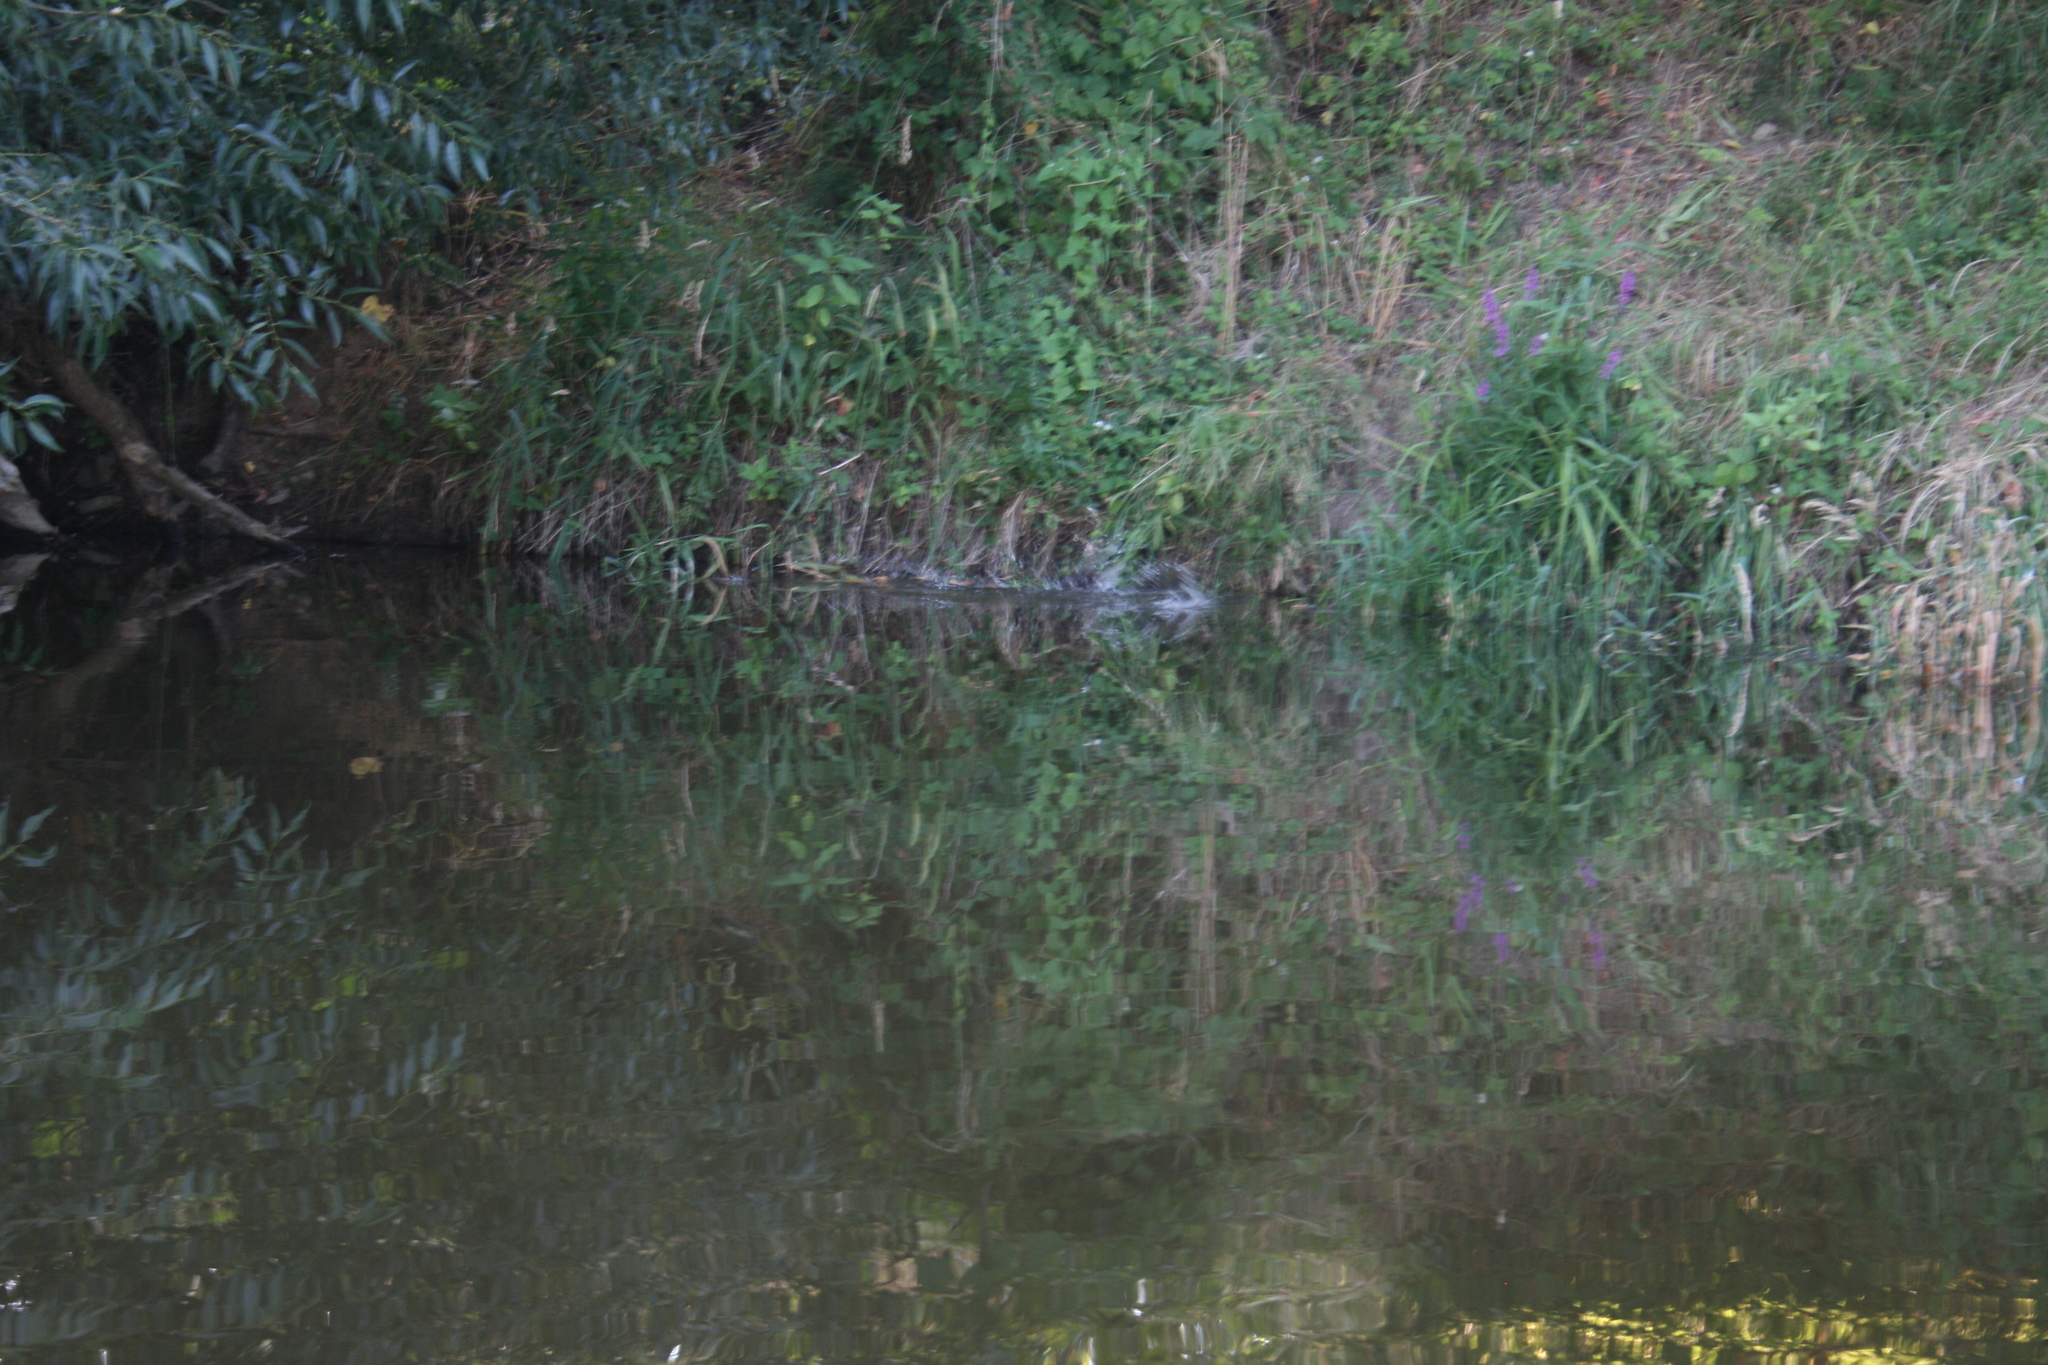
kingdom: Animalia
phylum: Chordata
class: Mammalia
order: Rodentia
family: Castoridae
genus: Castor
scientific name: Castor fiber
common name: Eurasian beaver
